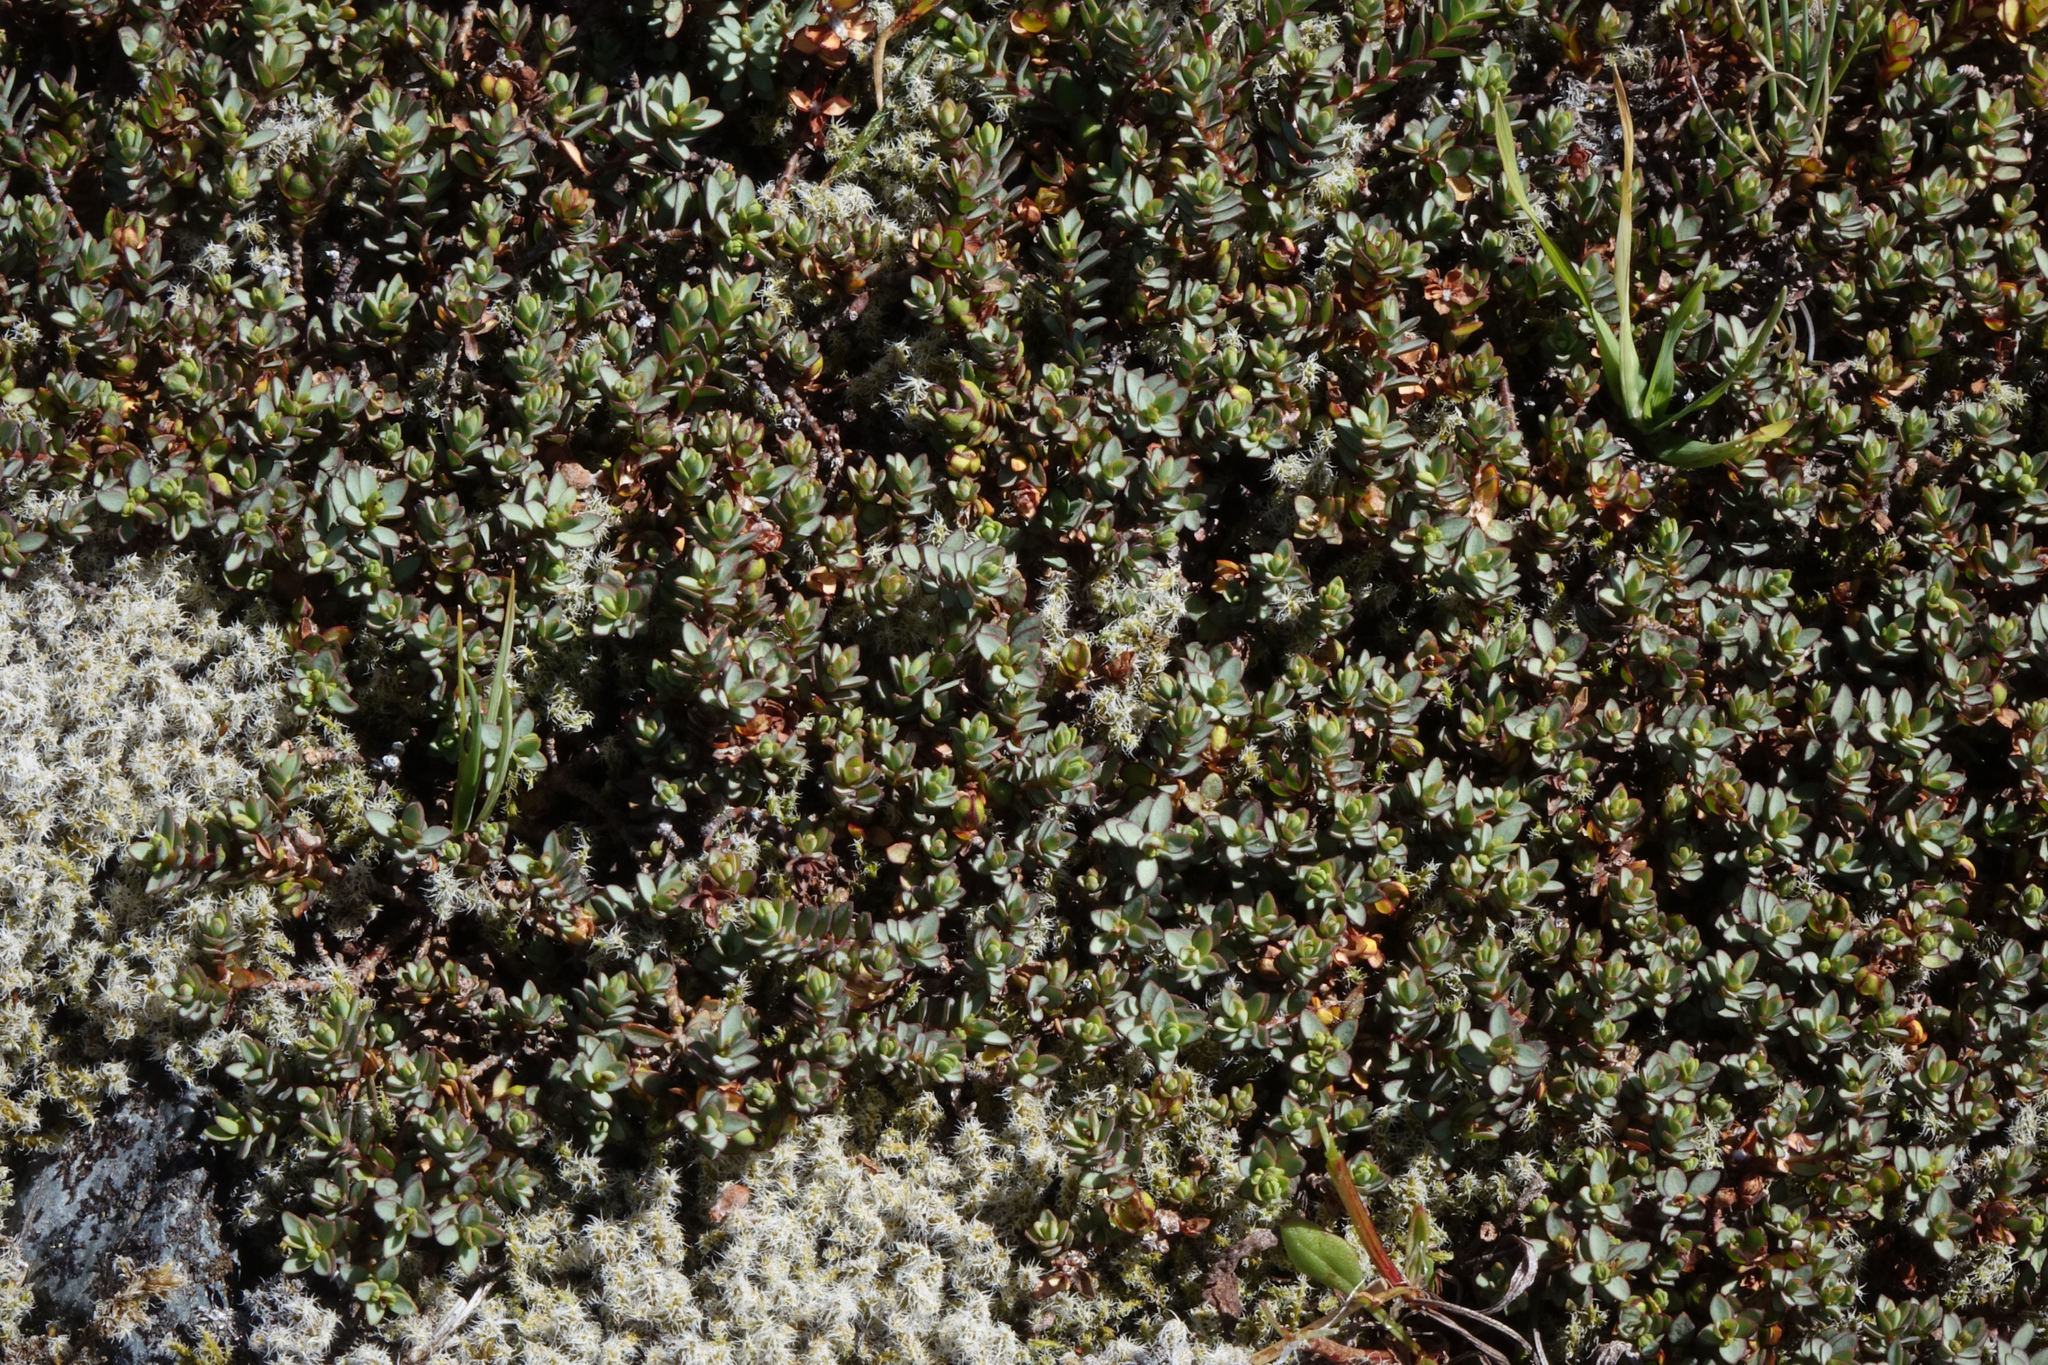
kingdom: Plantae
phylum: Tracheophyta
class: Magnoliopsida
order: Malvales
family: Thymelaeaceae
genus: Pimelea
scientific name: Pimelea prostrata
